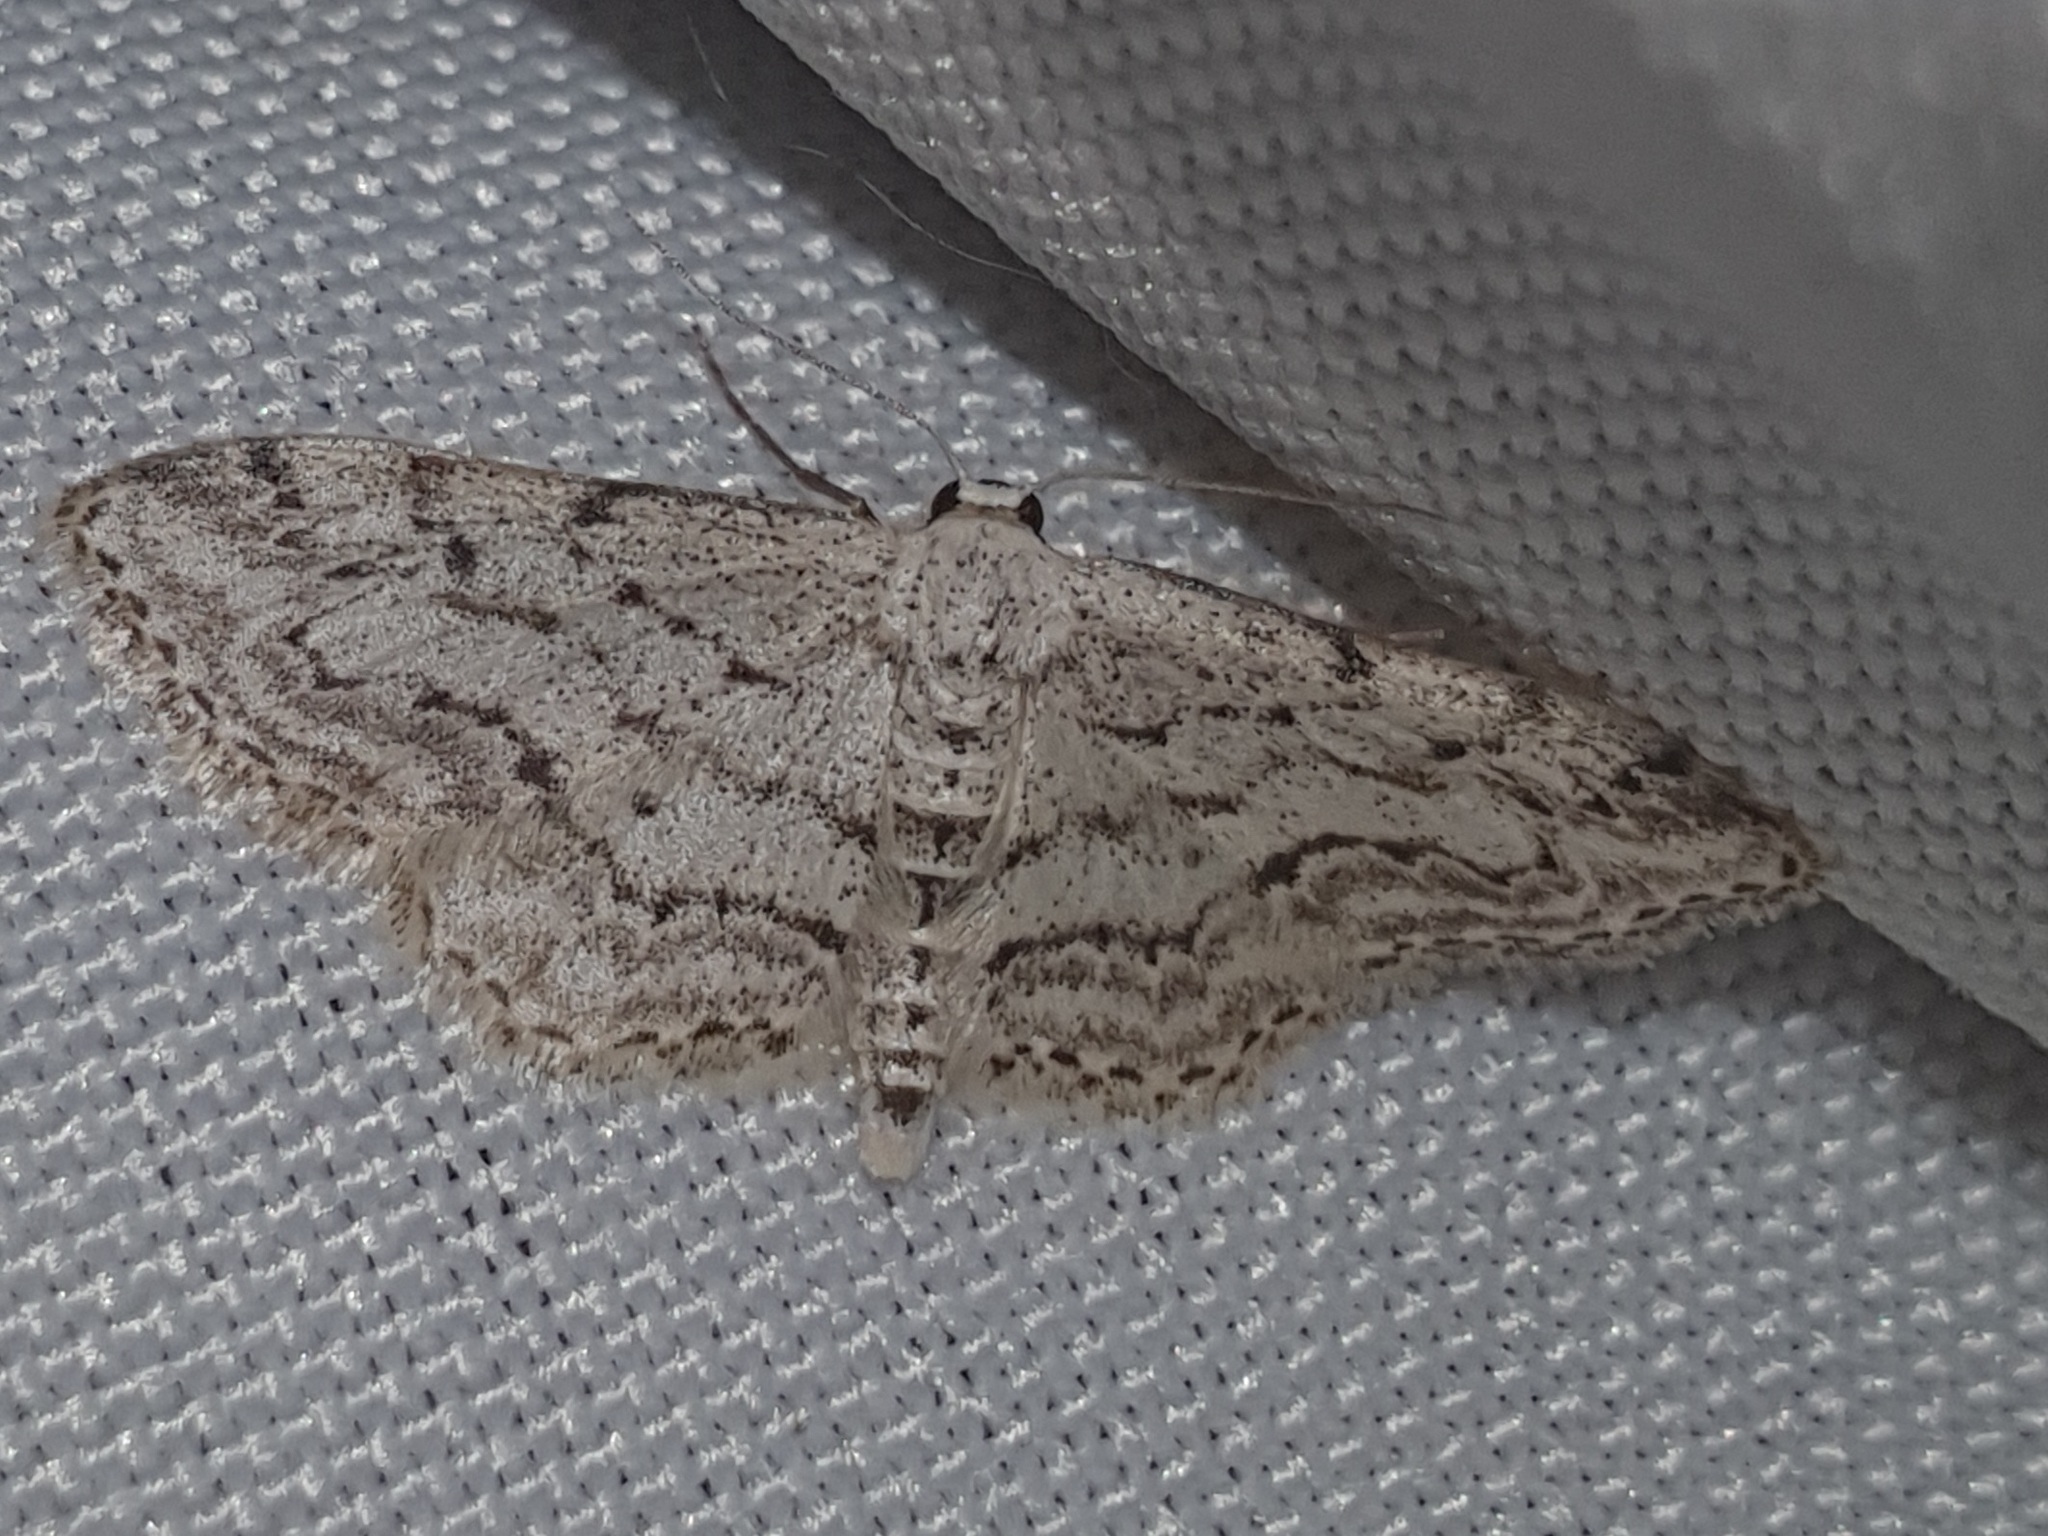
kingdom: Animalia
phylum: Arthropoda
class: Insecta
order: Lepidoptera
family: Geometridae
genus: Idaea
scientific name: Idaea calunetaria
